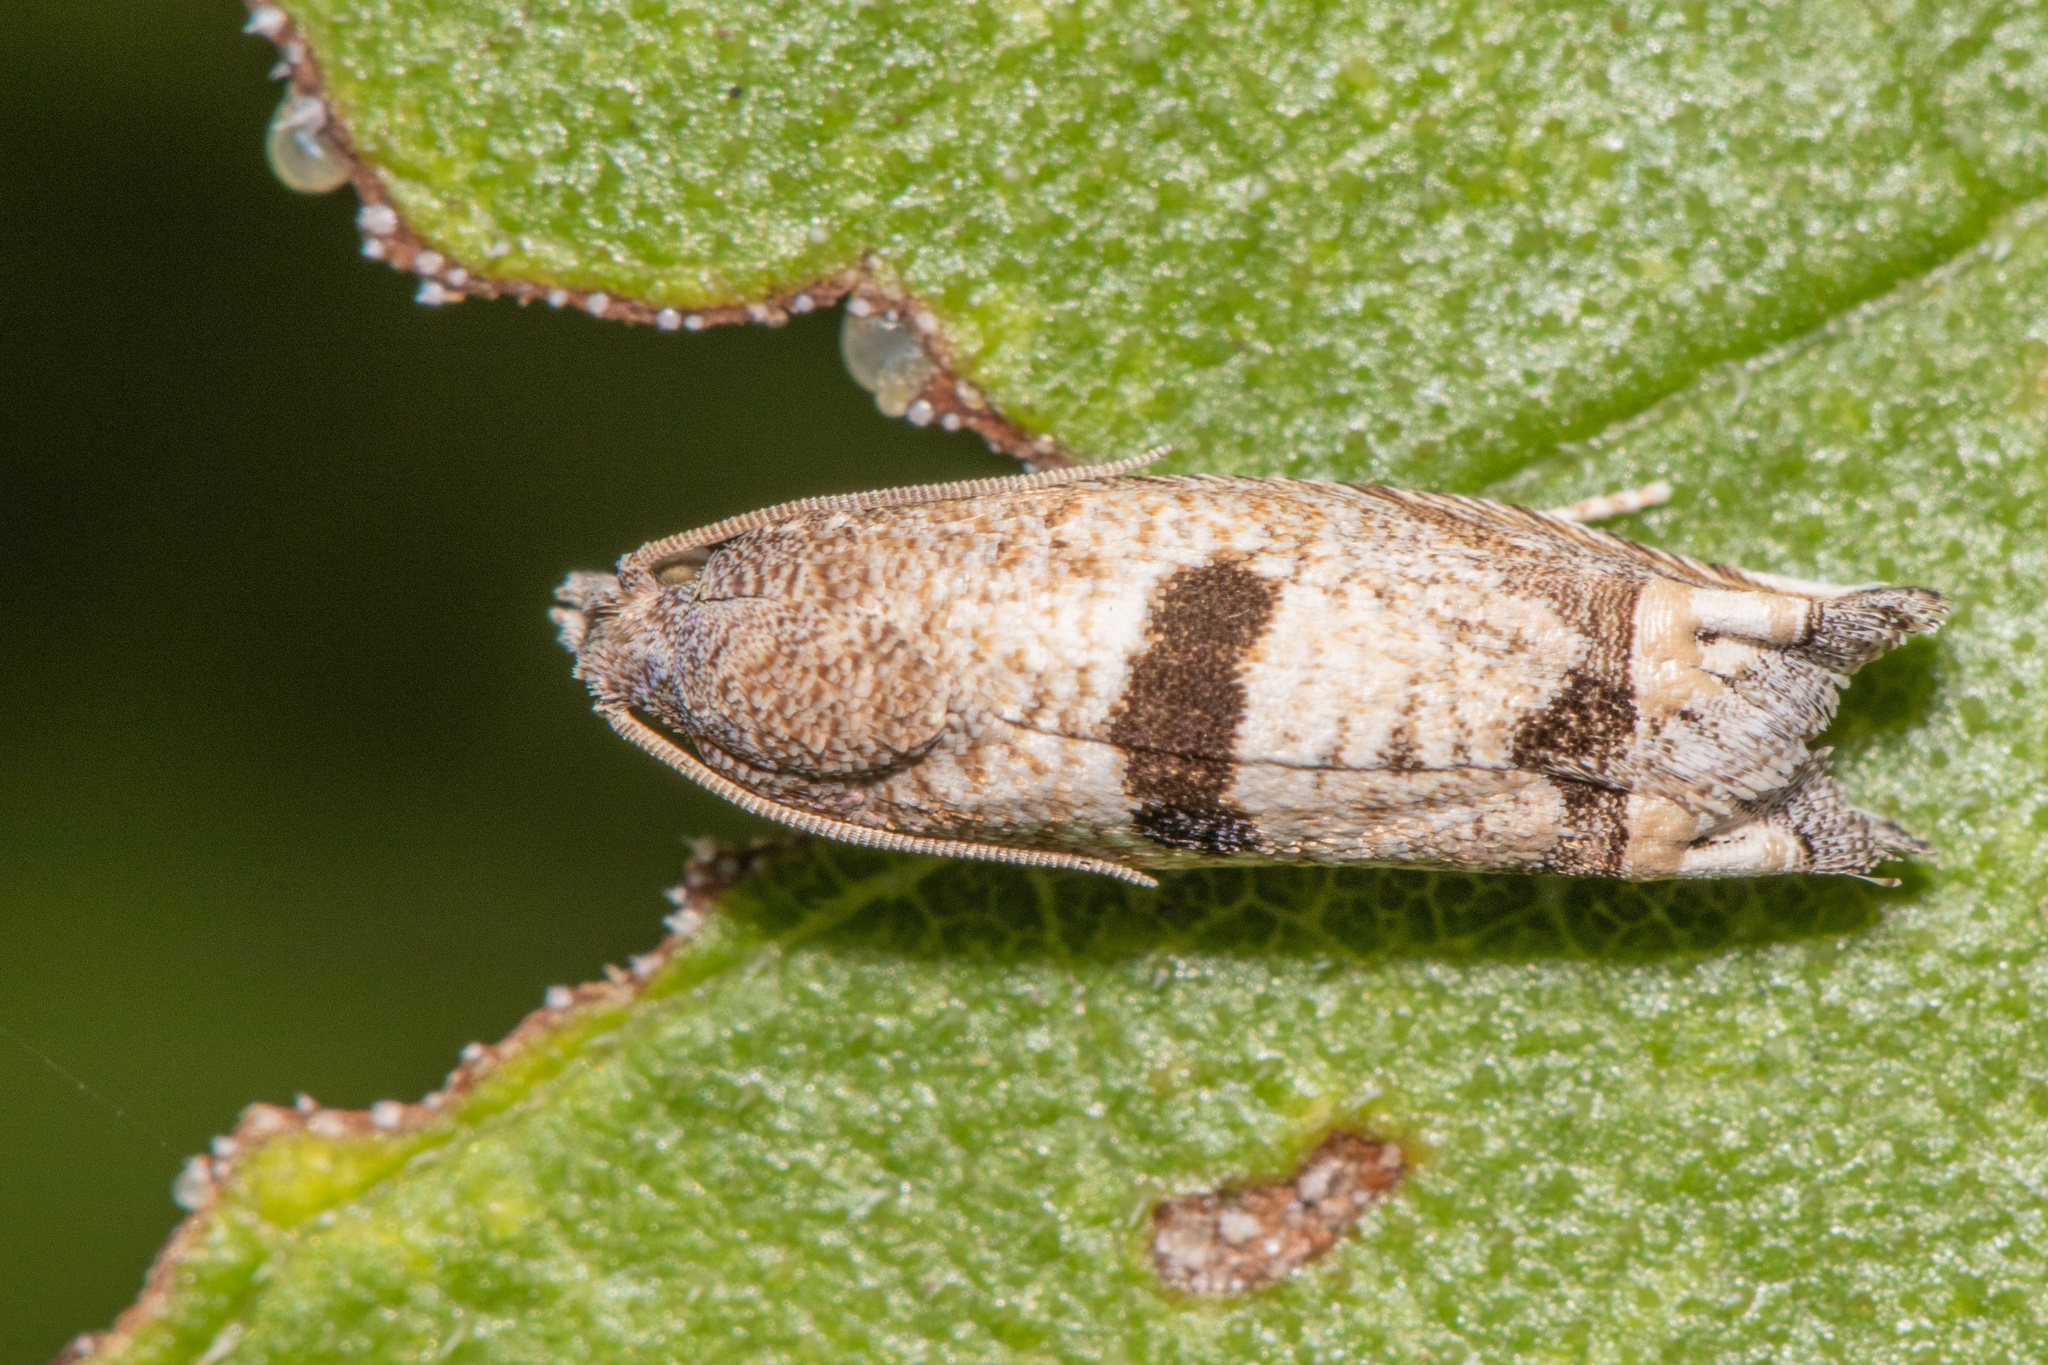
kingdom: Animalia
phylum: Arthropoda
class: Insecta
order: Lepidoptera
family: Tortricidae
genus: Suleima
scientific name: Suleima helianthana
